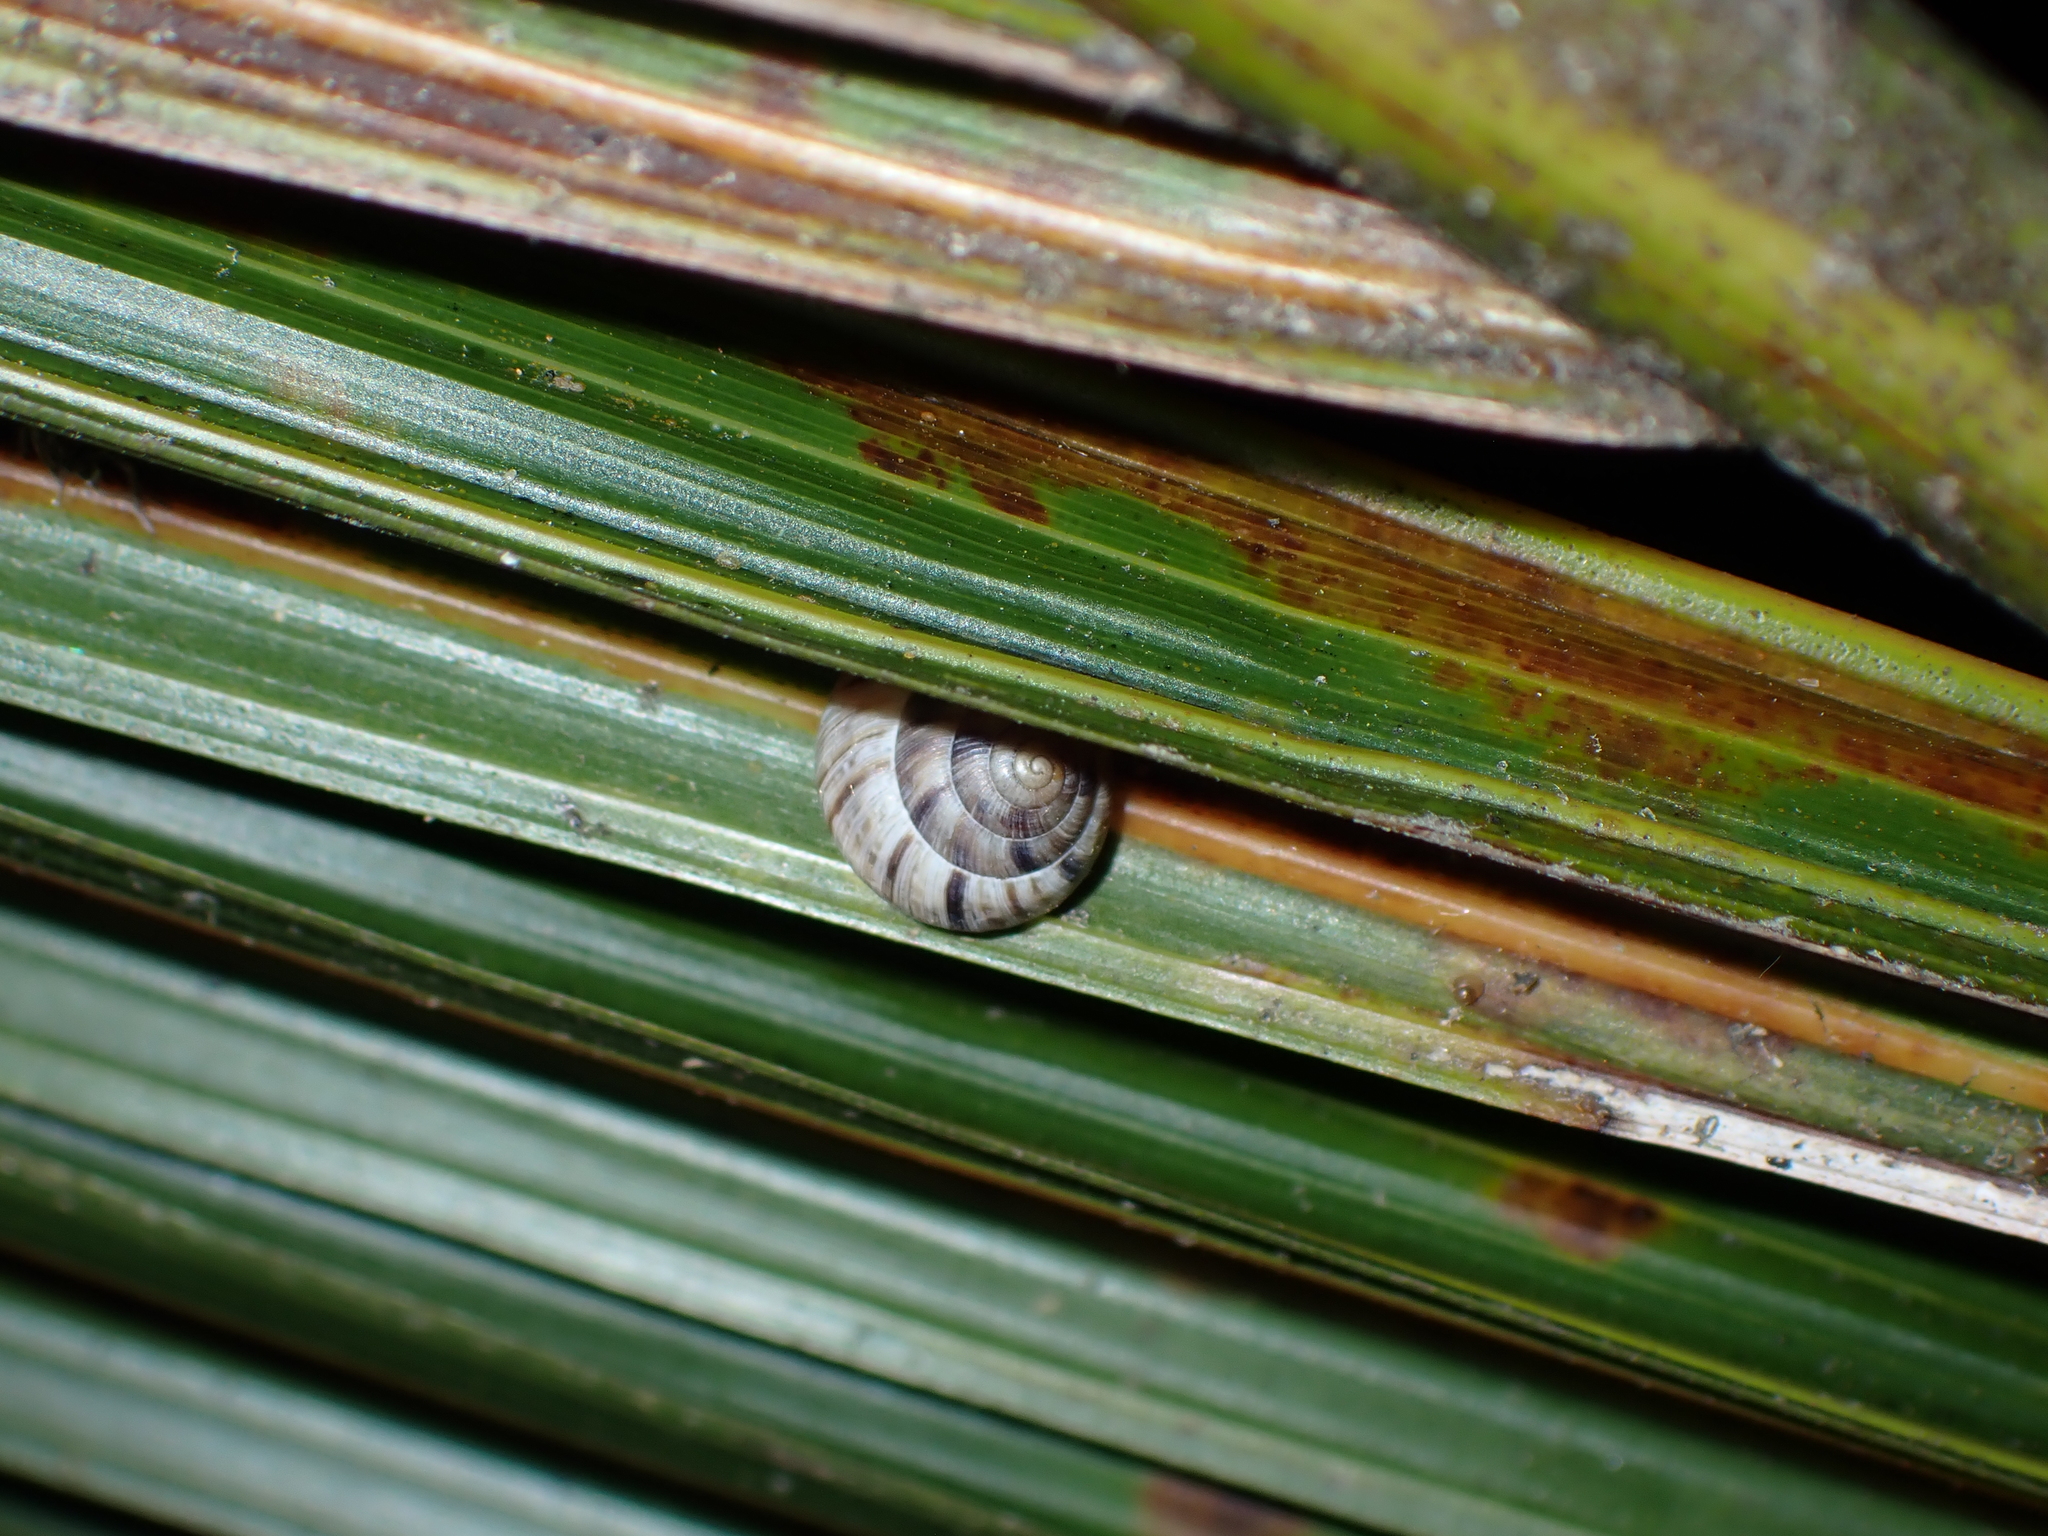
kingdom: Animalia
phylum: Mollusca
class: Gastropoda
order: Stylommatophora
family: Charopidae
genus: Serpho
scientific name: Serpho
